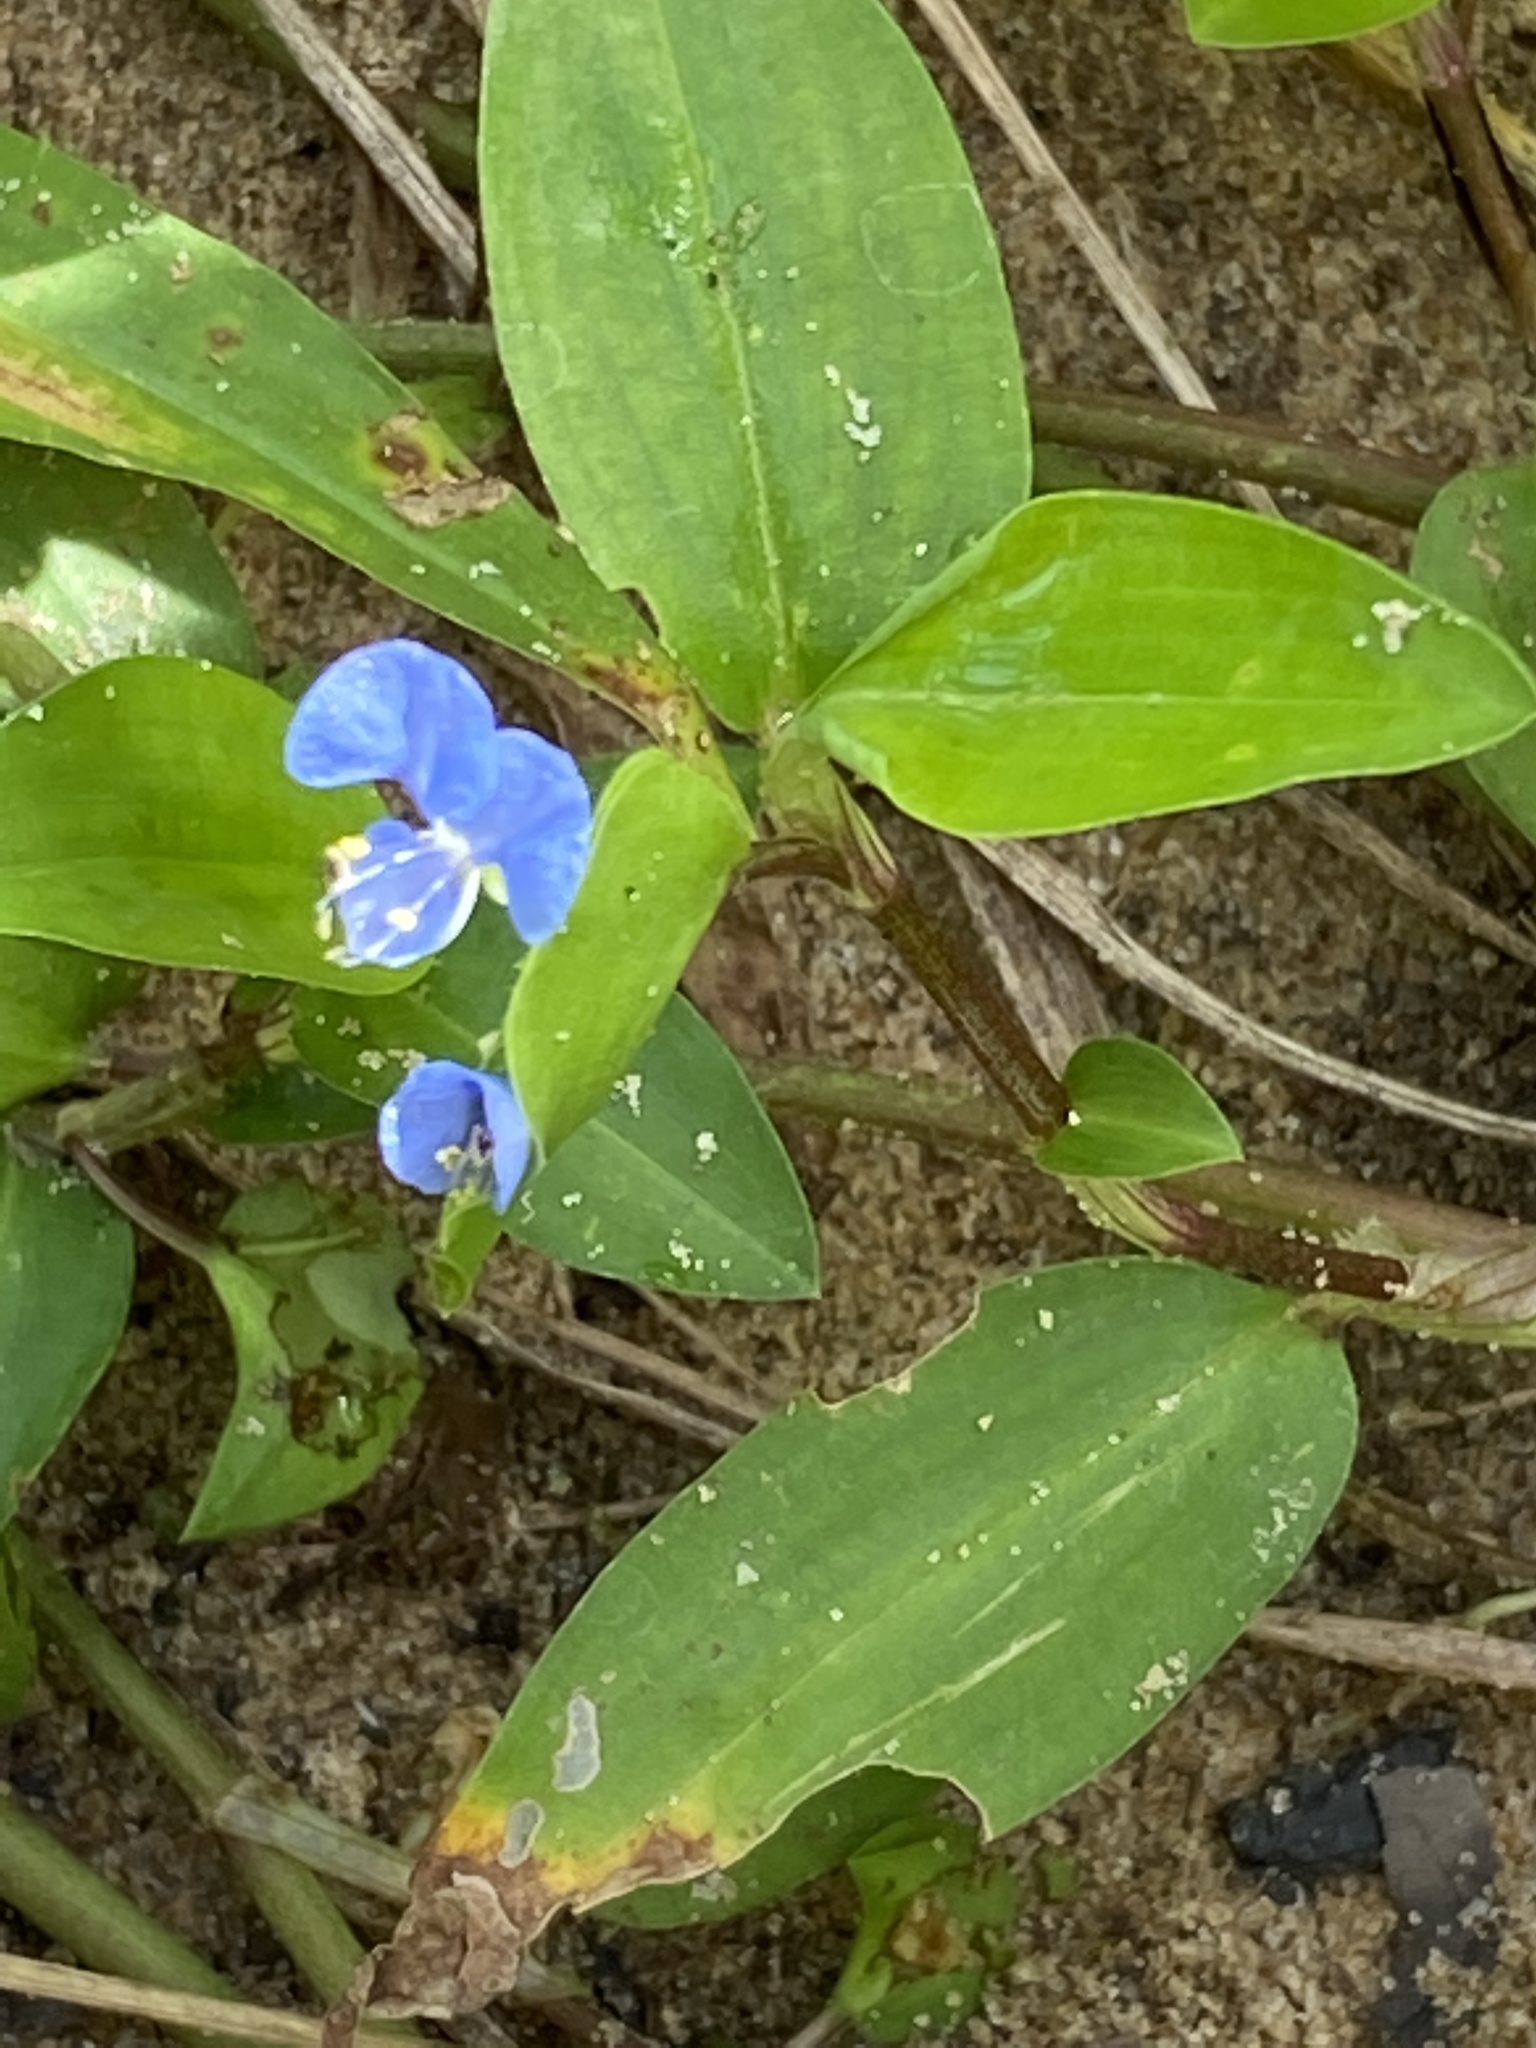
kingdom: Plantae
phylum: Tracheophyta
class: Liliopsida
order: Commelinales
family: Commelinaceae
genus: Commelina
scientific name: Commelina diffusa
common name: Climbing dayflower
